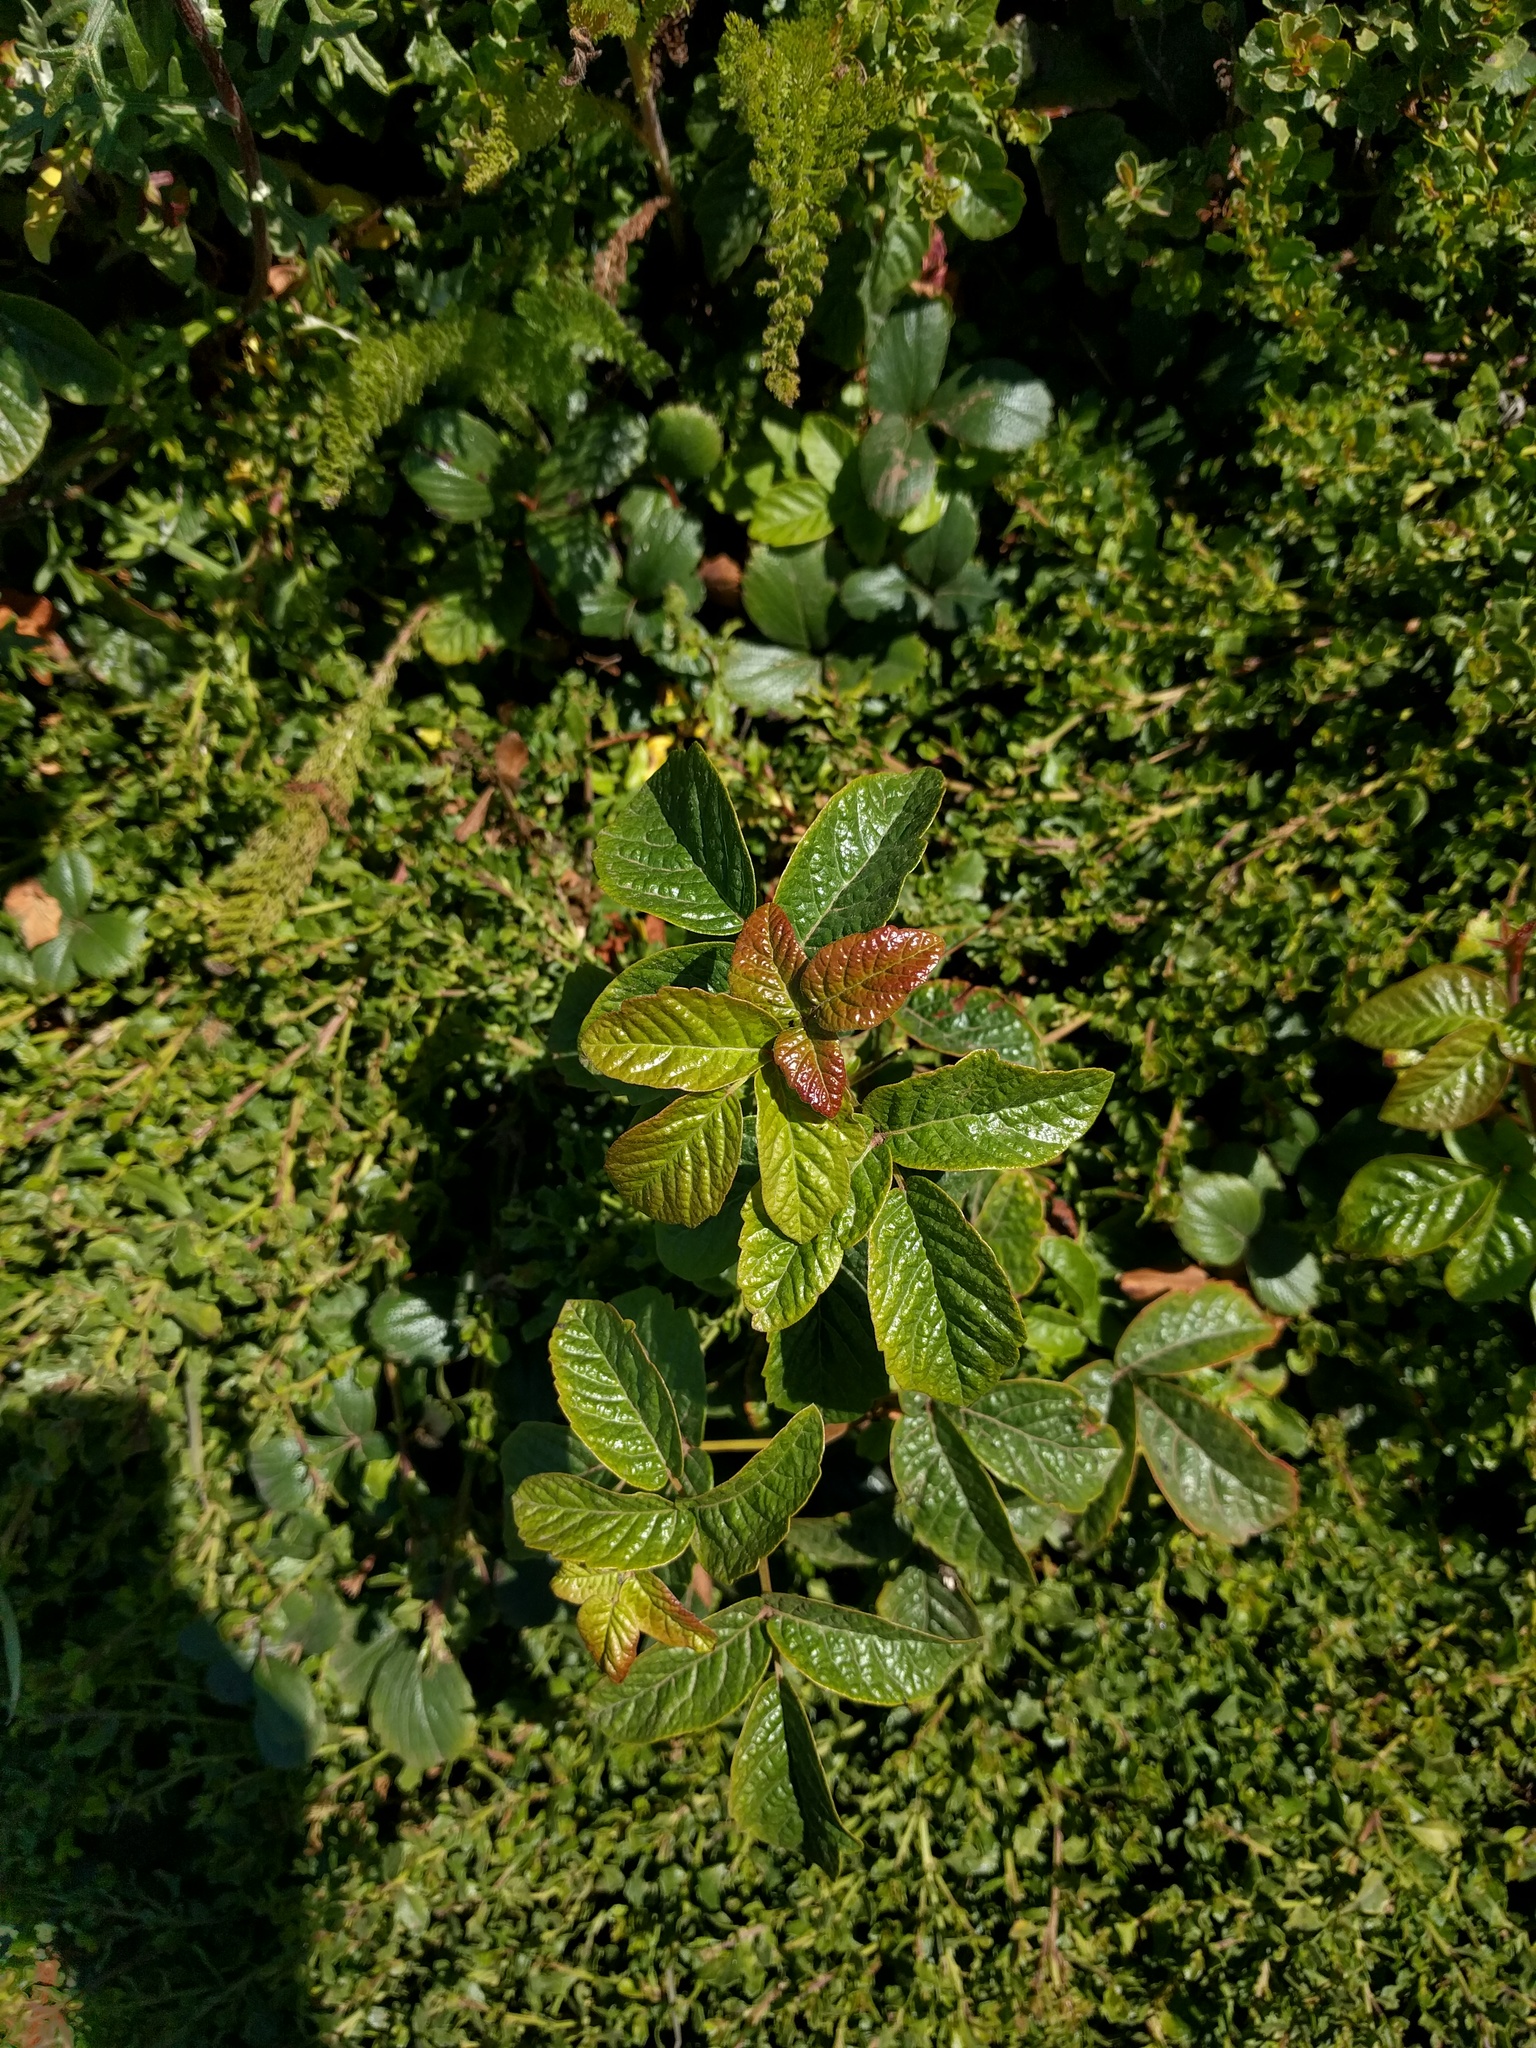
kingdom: Plantae
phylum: Tracheophyta
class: Magnoliopsida
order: Sapindales
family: Anacardiaceae
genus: Toxicodendron
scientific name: Toxicodendron diversilobum
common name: Pacific poison-oak
